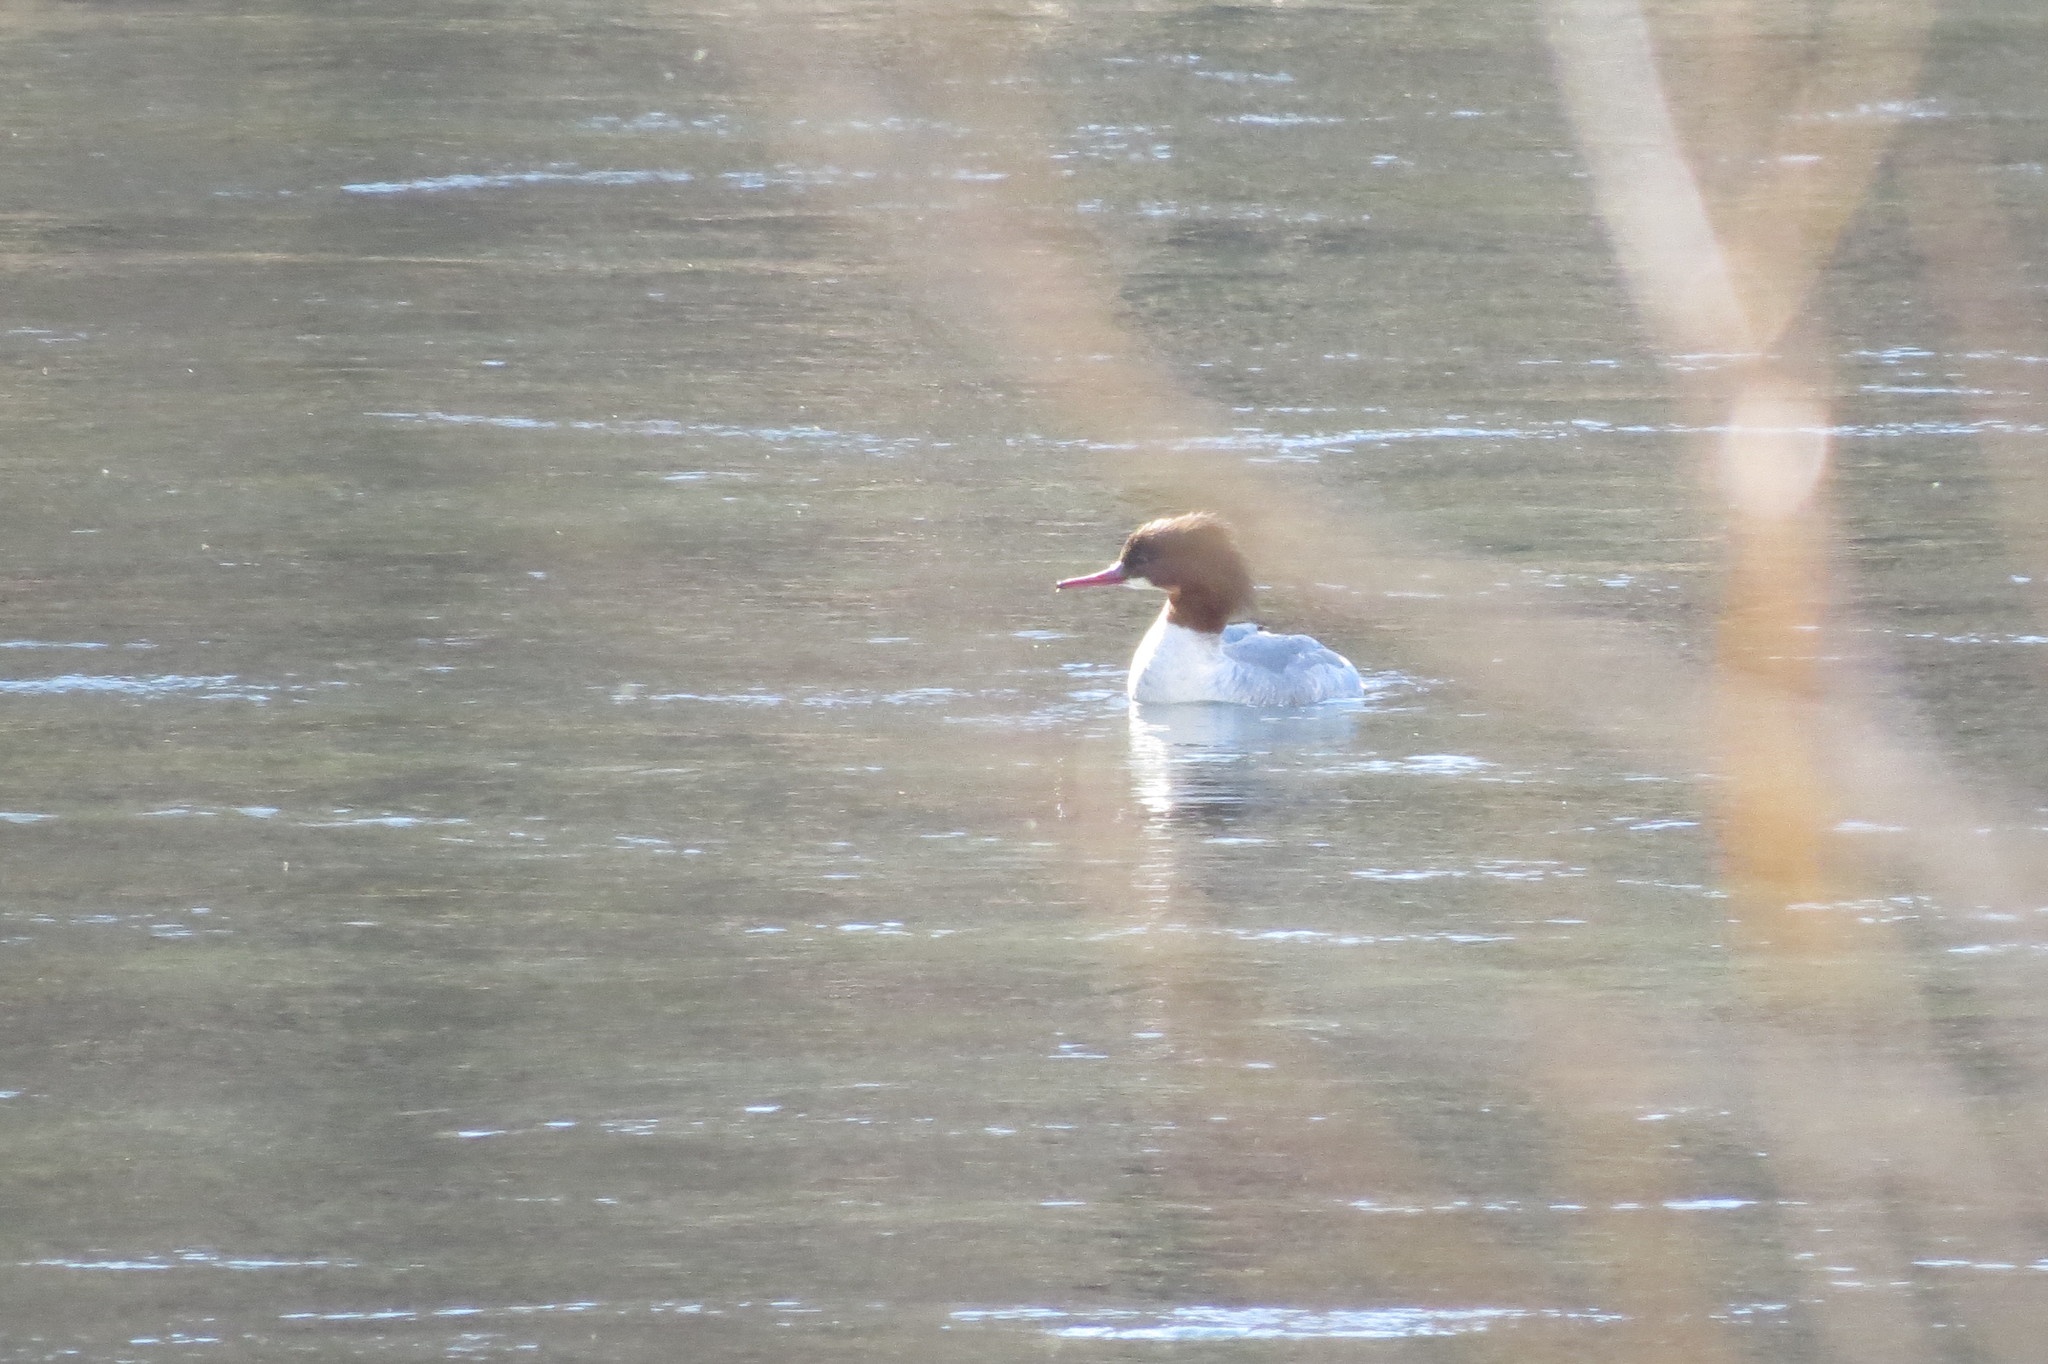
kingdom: Animalia
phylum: Chordata
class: Aves
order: Anseriformes
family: Anatidae
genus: Mergus
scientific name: Mergus merganser
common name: Common merganser
